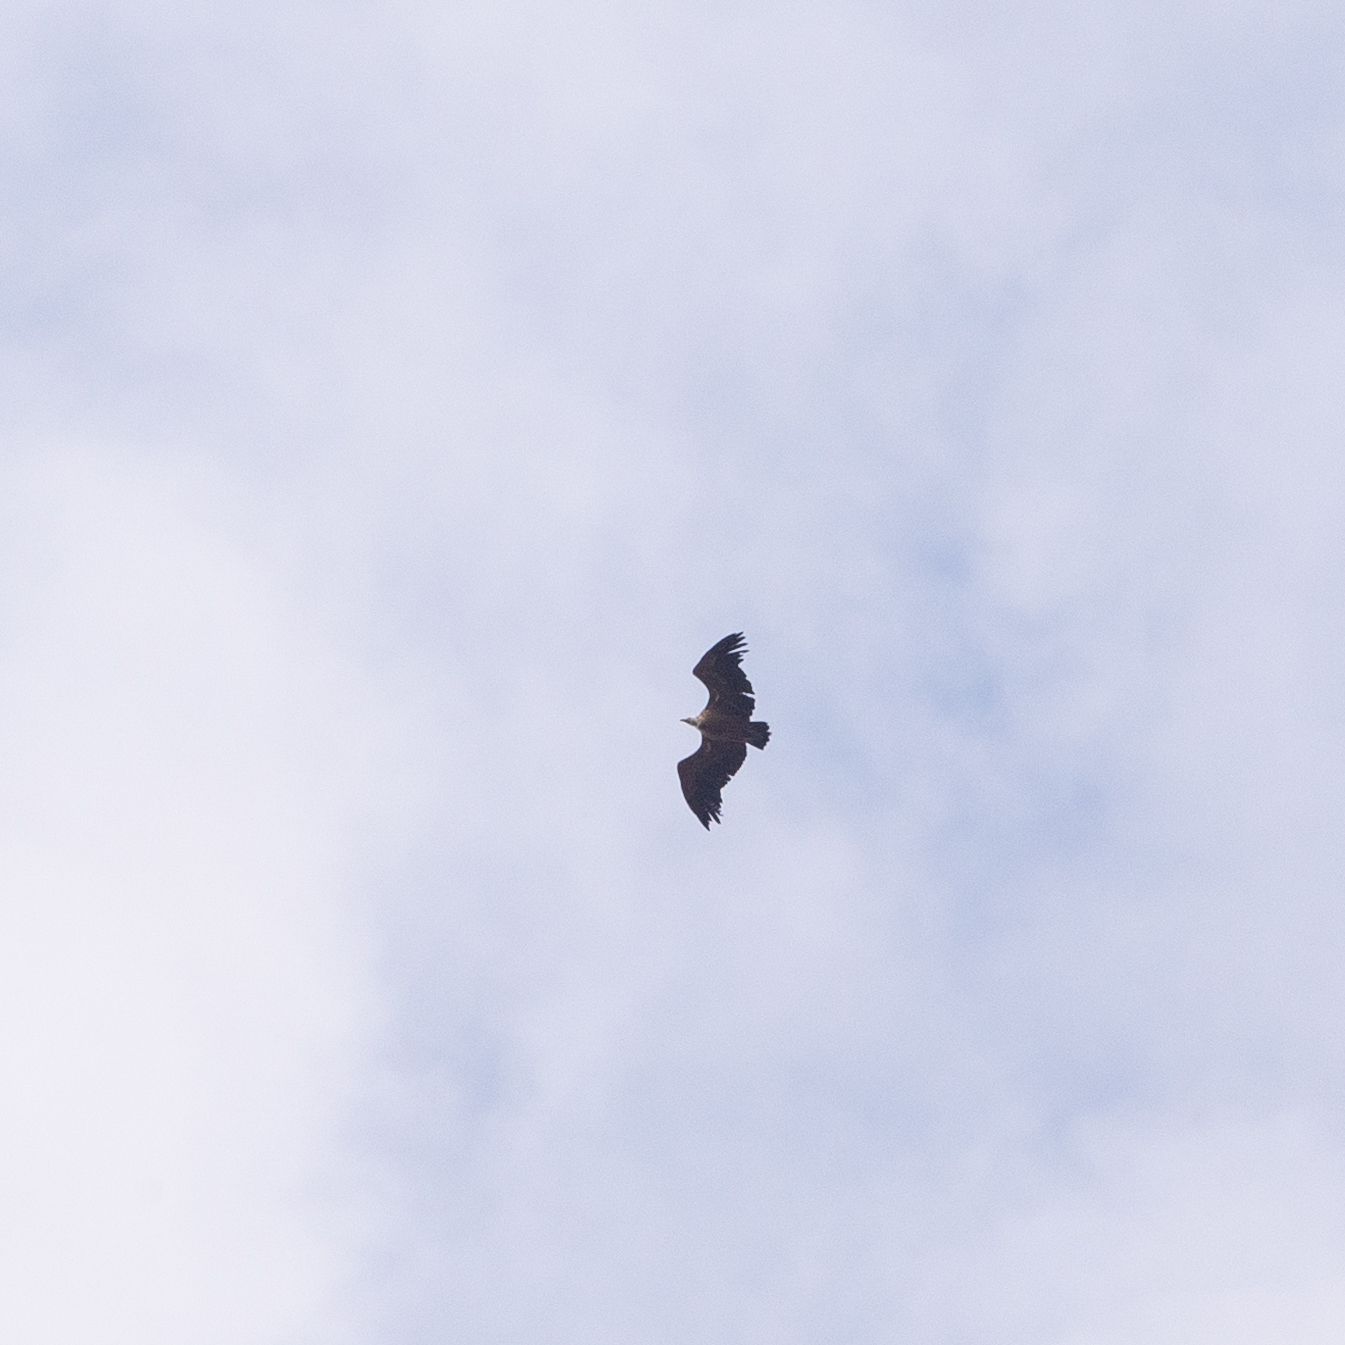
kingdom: Animalia
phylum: Chordata
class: Aves
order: Accipitriformes
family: Accipitridae
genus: Gyps
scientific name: Gyps fulvus
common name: Griffon vulture
